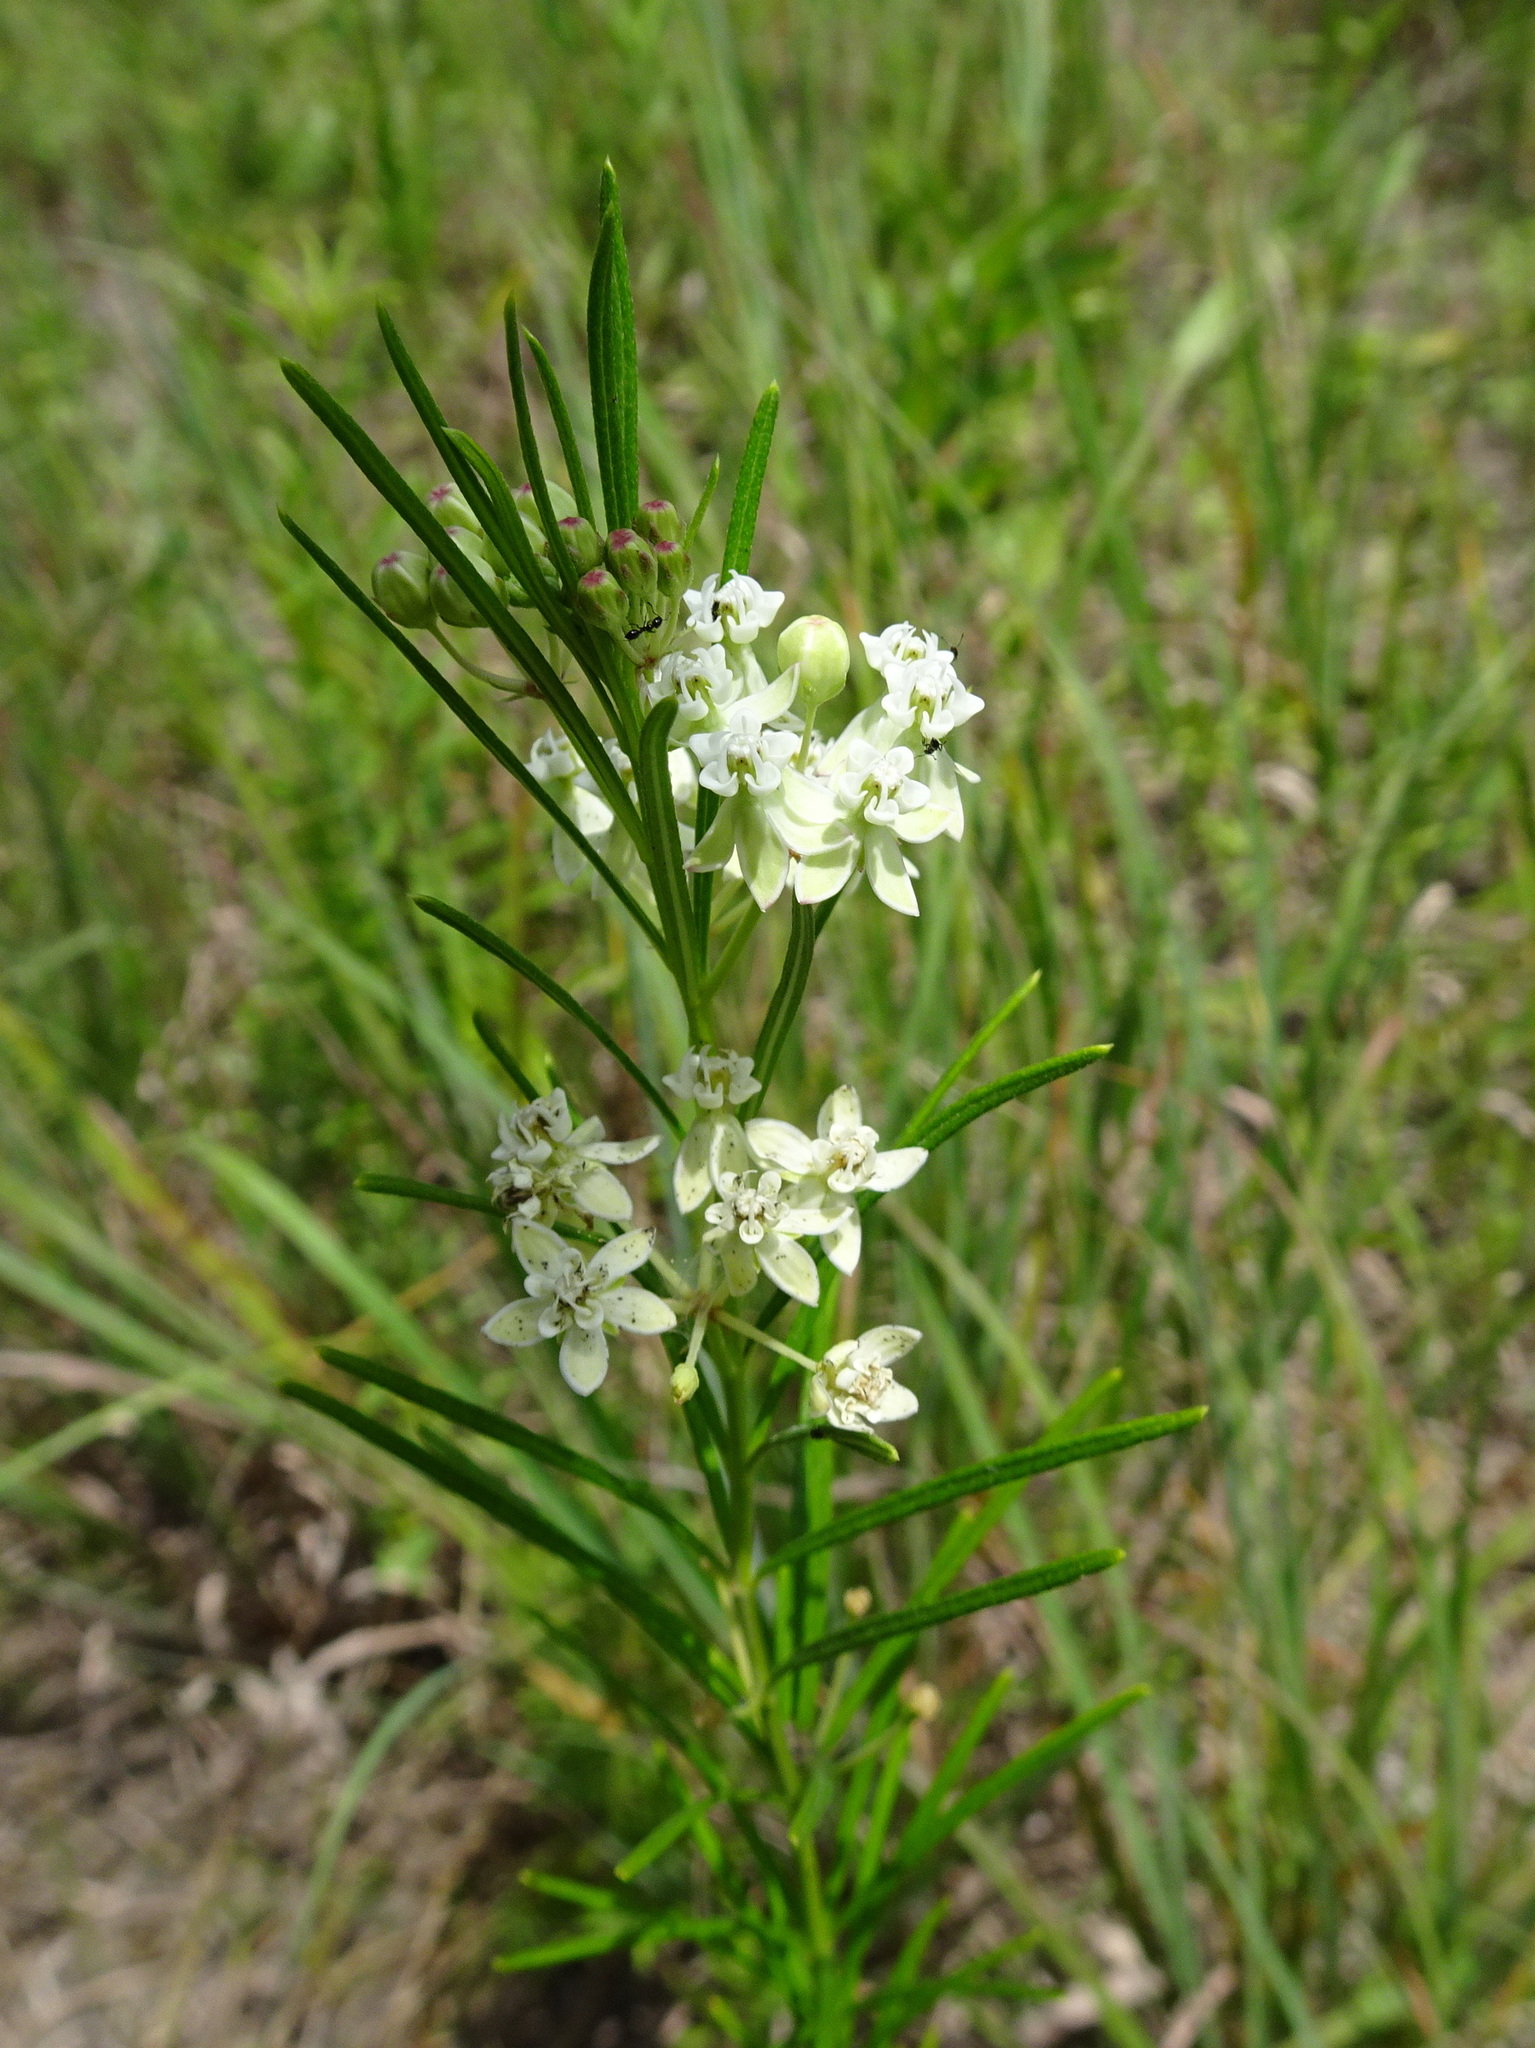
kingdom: Plantae
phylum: Tracheophyta
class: Magnoliopsida
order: Gentianales
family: Apocynaceae
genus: Asclepias
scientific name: Asclepias verticillata
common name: Eastern whorled milkweed
